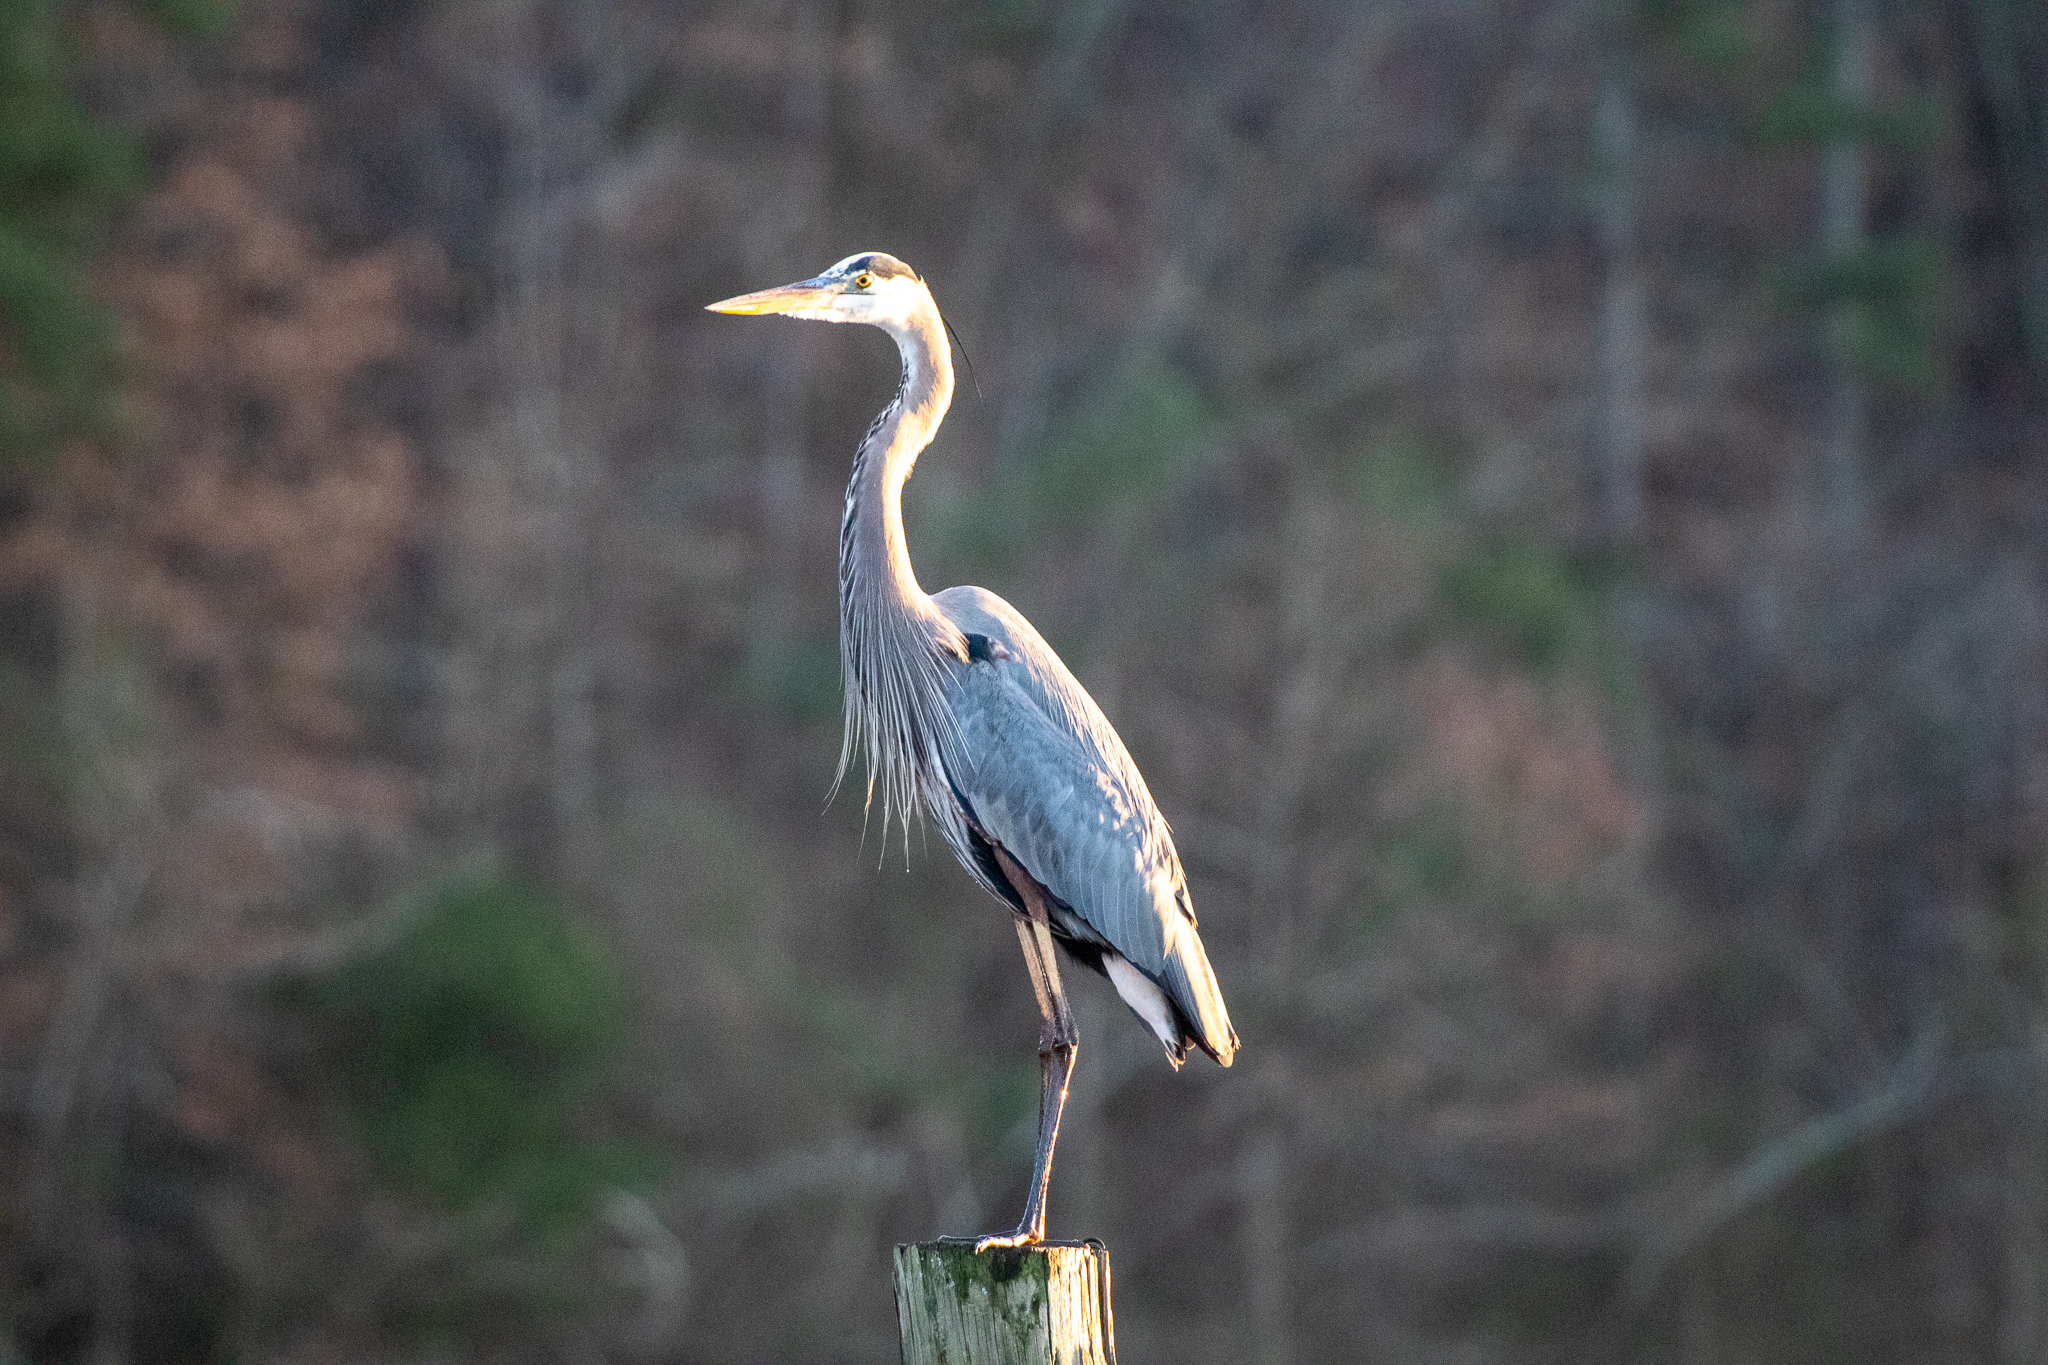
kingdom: Animalia
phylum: Chordata
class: Aves
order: Pelecaniformes
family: Ardeidae
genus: Ardea
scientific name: Ardea herodias
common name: Great blue heron
